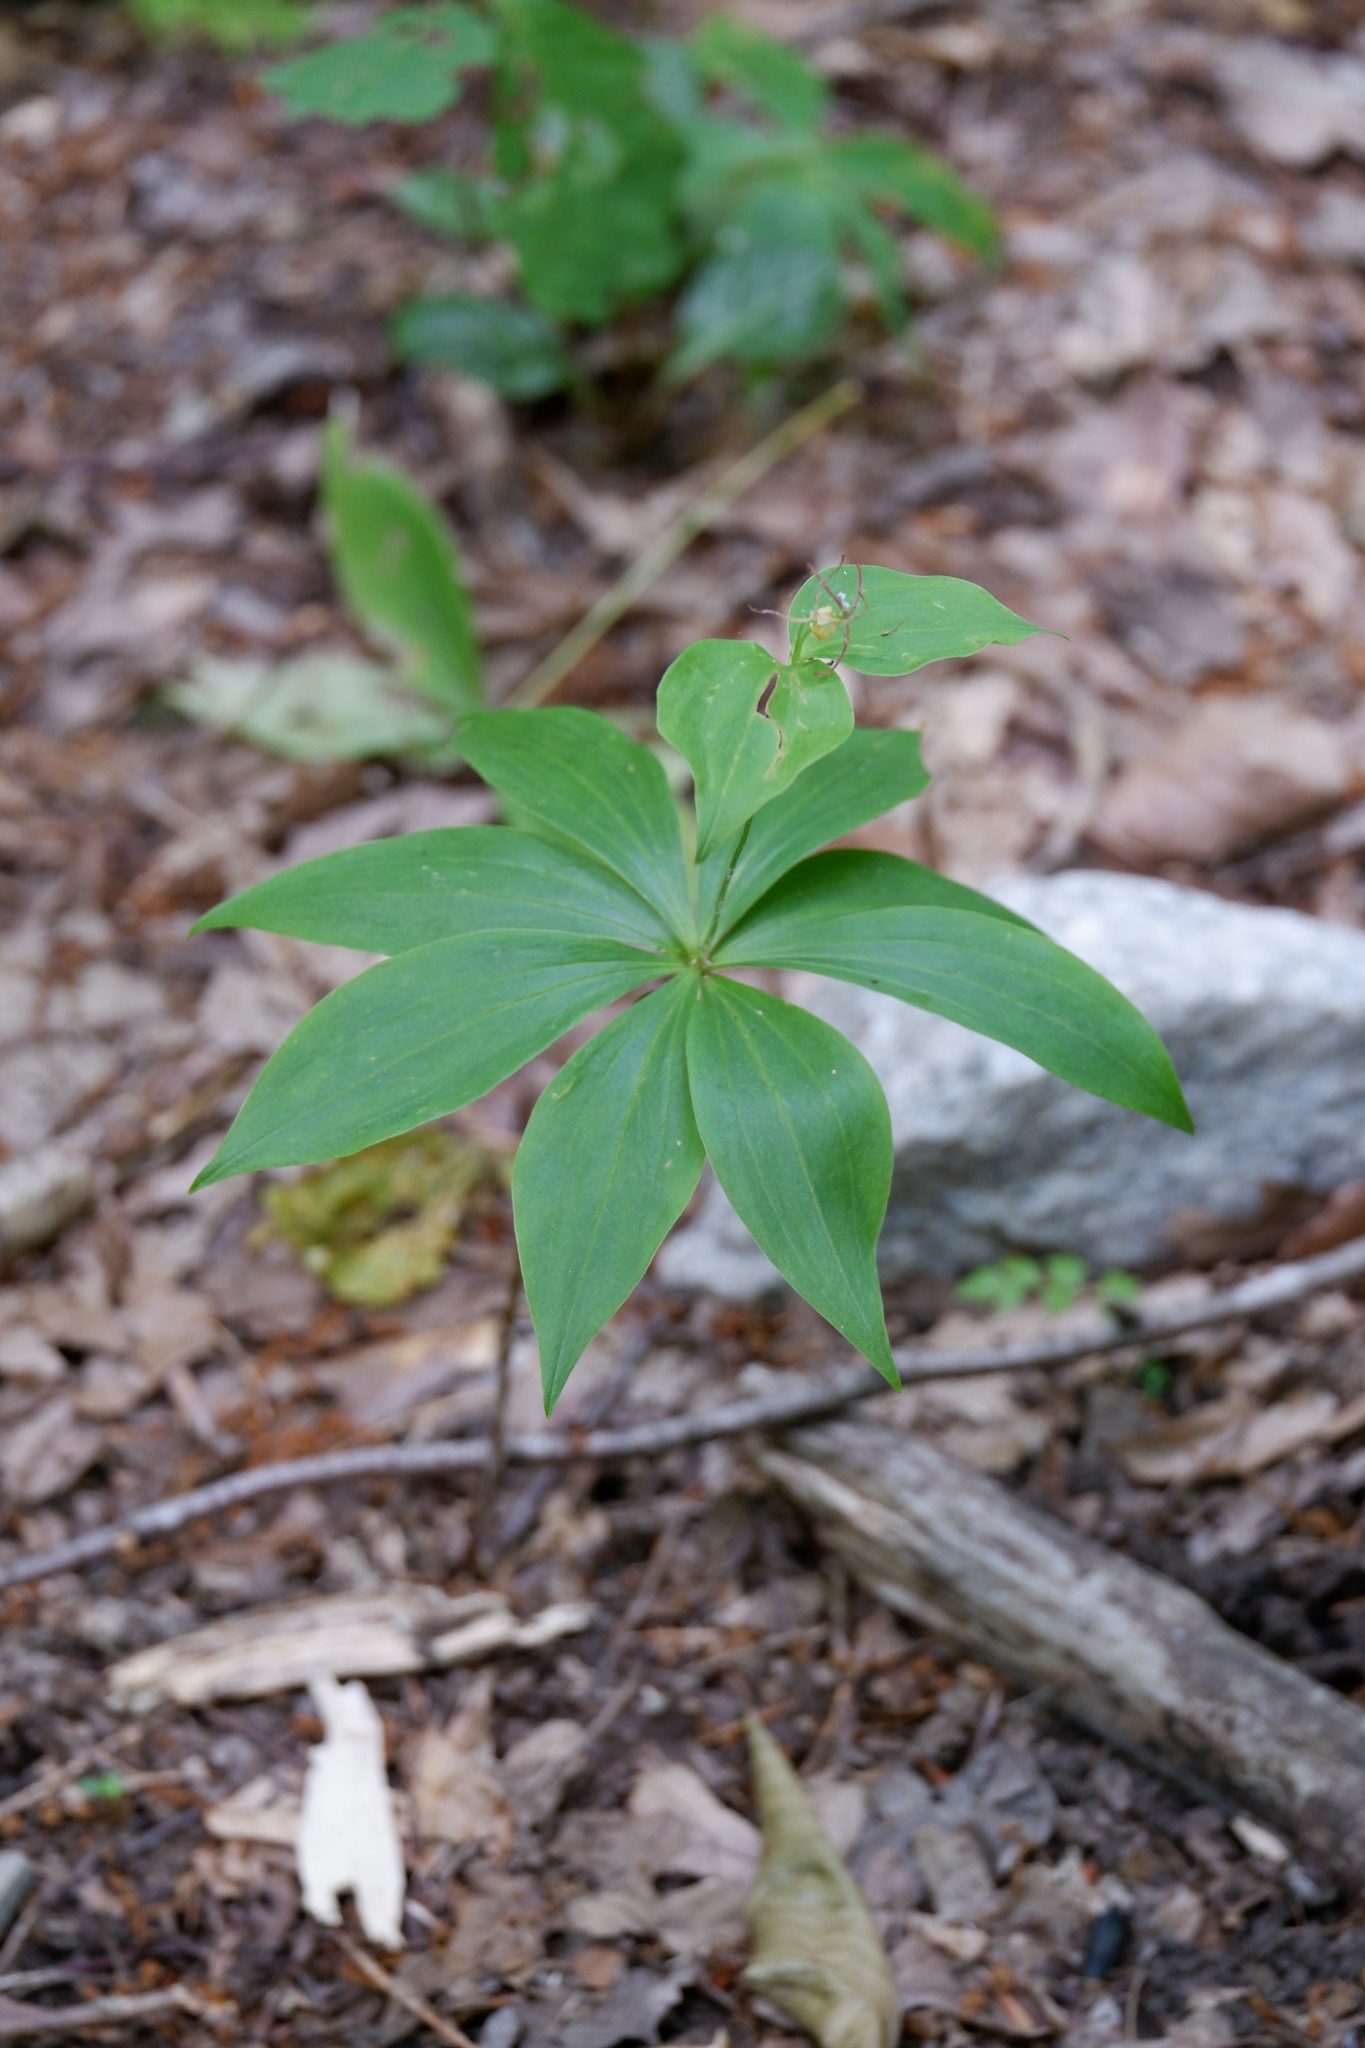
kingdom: Plantae
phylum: Tracheophyta
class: Liliopsida
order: Liliales
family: Liliaceae
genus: Medeola
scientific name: Medeola virginiana
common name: Indian cucumber-root
